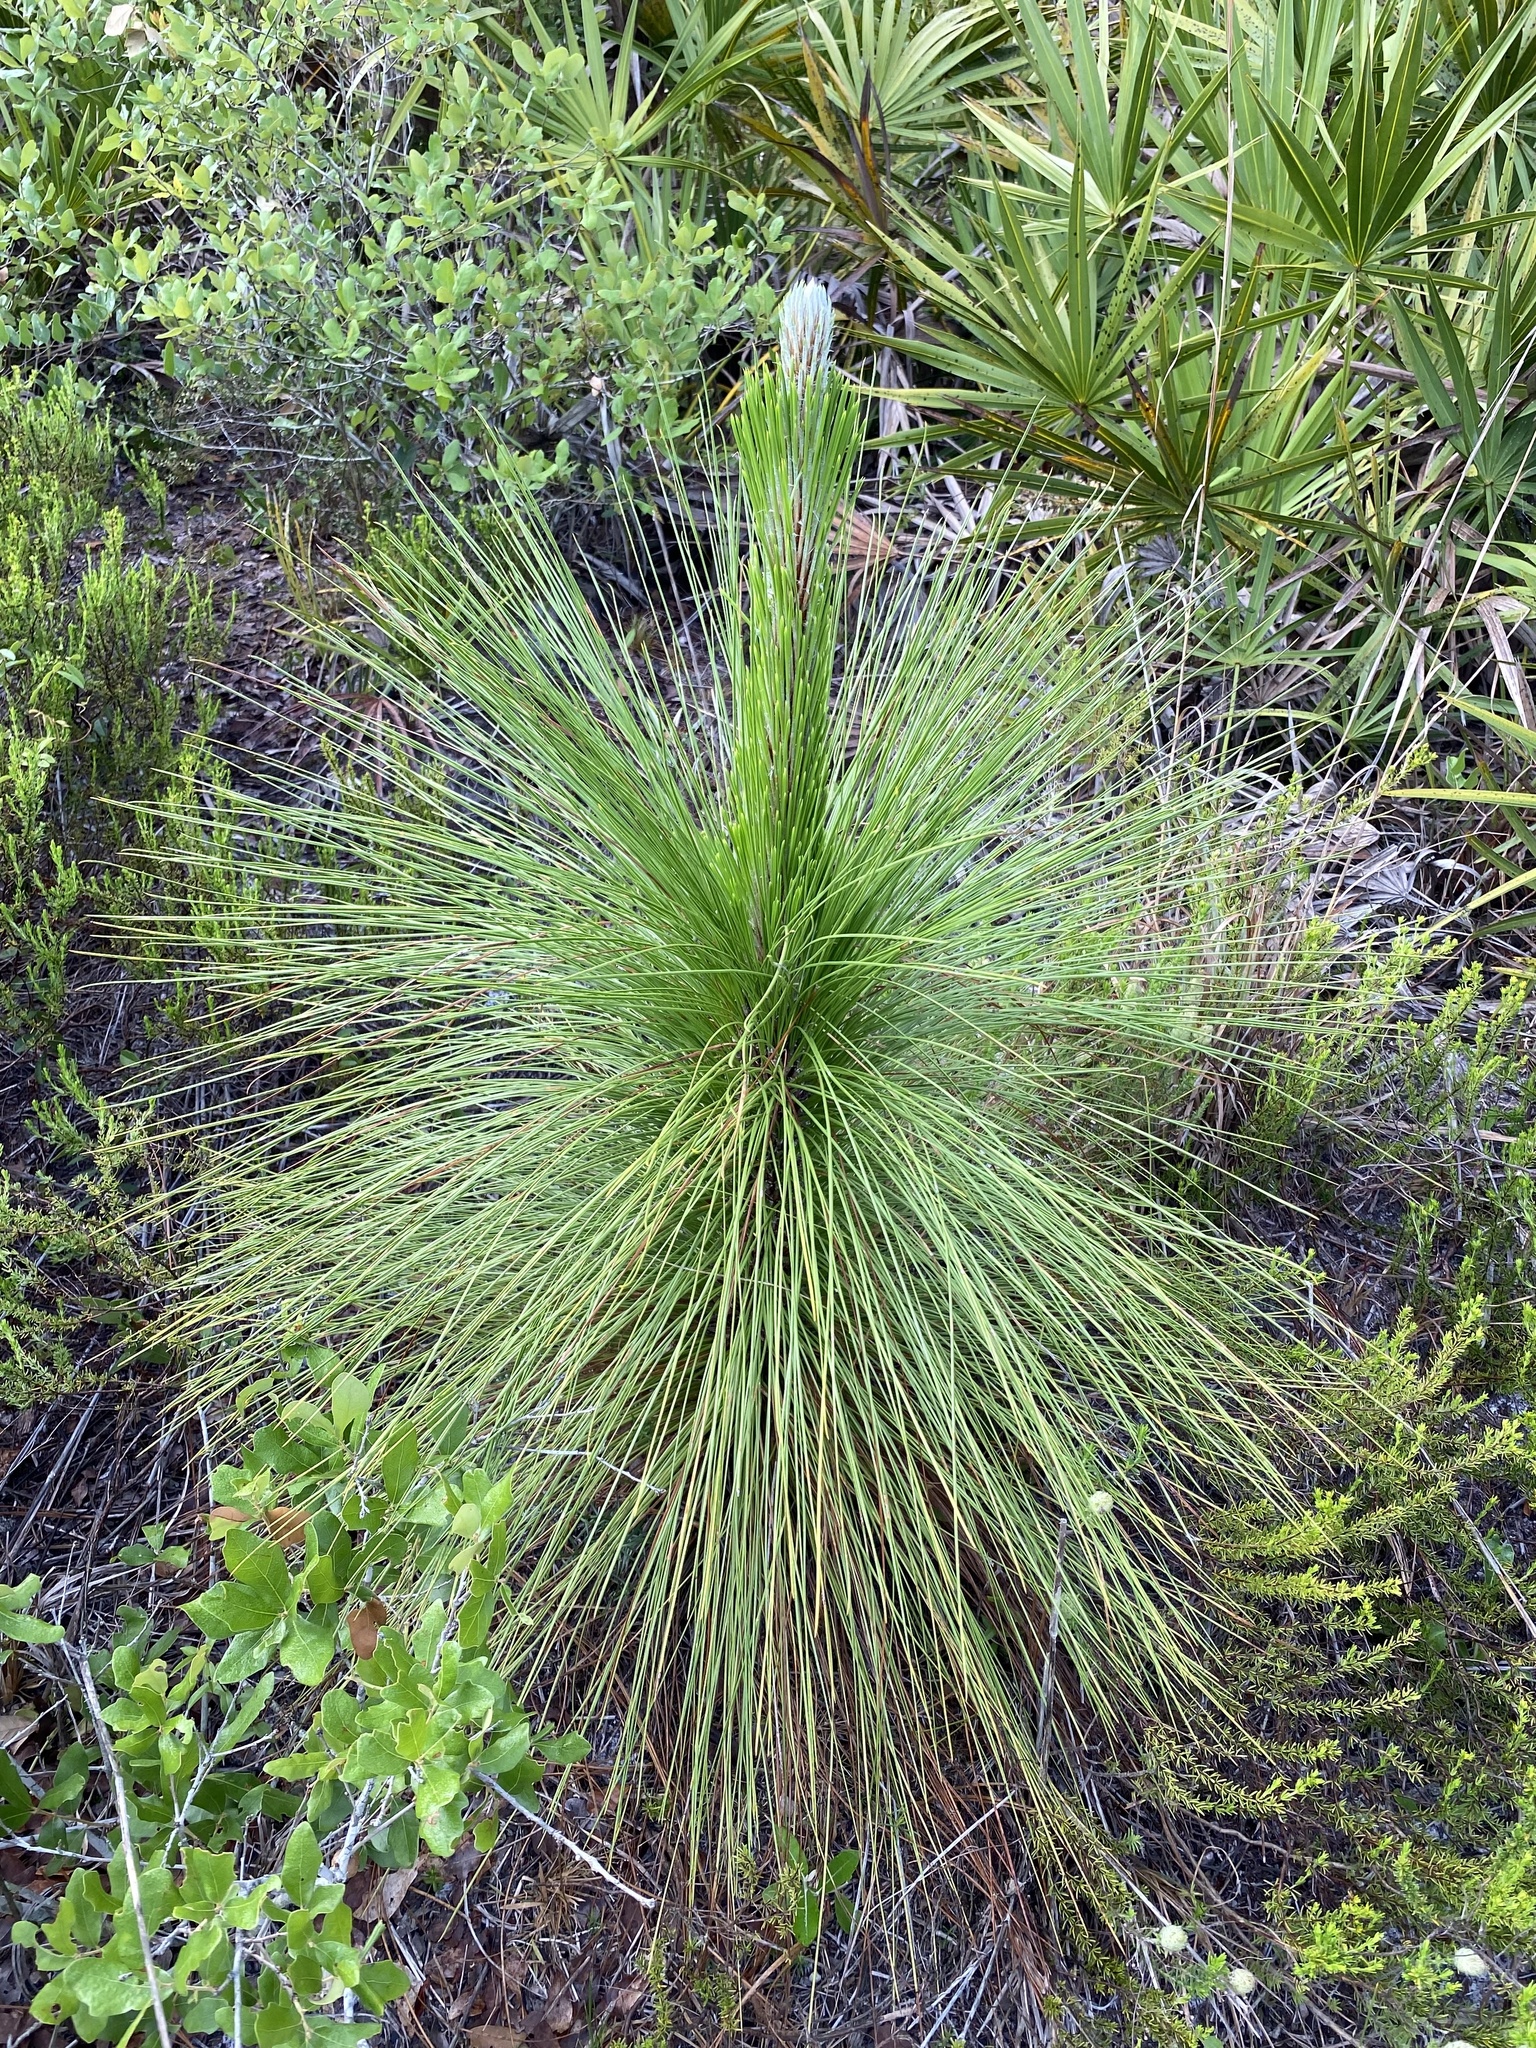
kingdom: Plantae
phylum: Tracheophyta
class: Pinopsida
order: Pinales
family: Pinaceae
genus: Pinus
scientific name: Pinus palustris
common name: Longleaf pine
